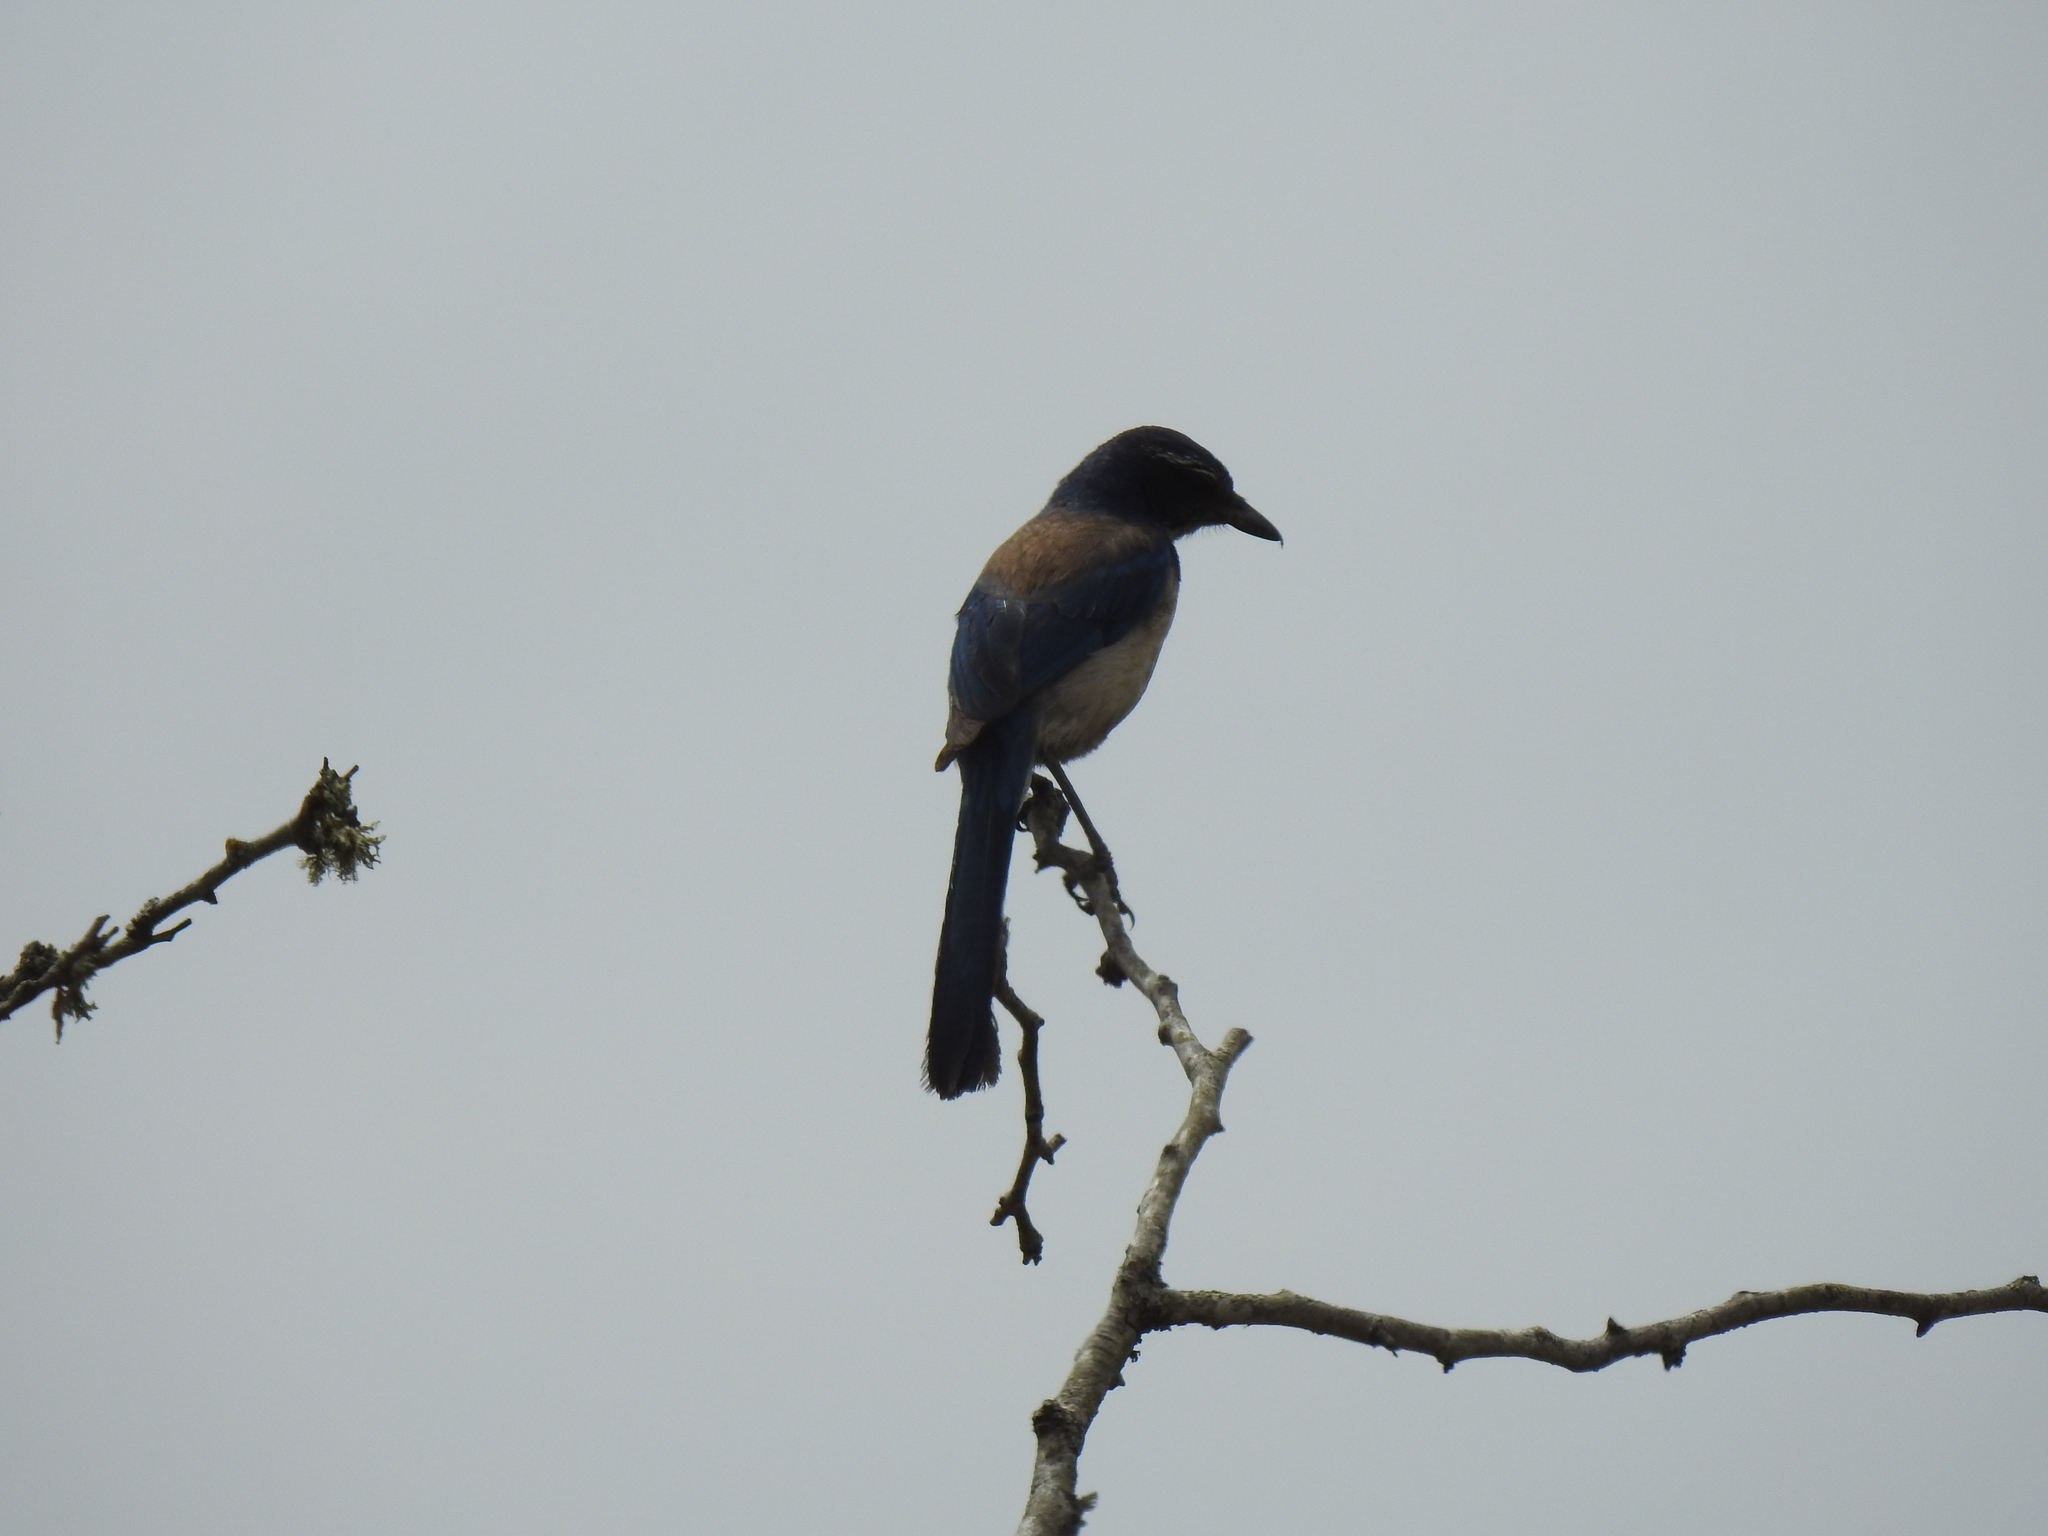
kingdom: Animalia
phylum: Chordata
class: Aves
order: Passeriformes
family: Corvidae
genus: Aphelocoma
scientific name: Aphelocoma californica
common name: California scrub-jay
